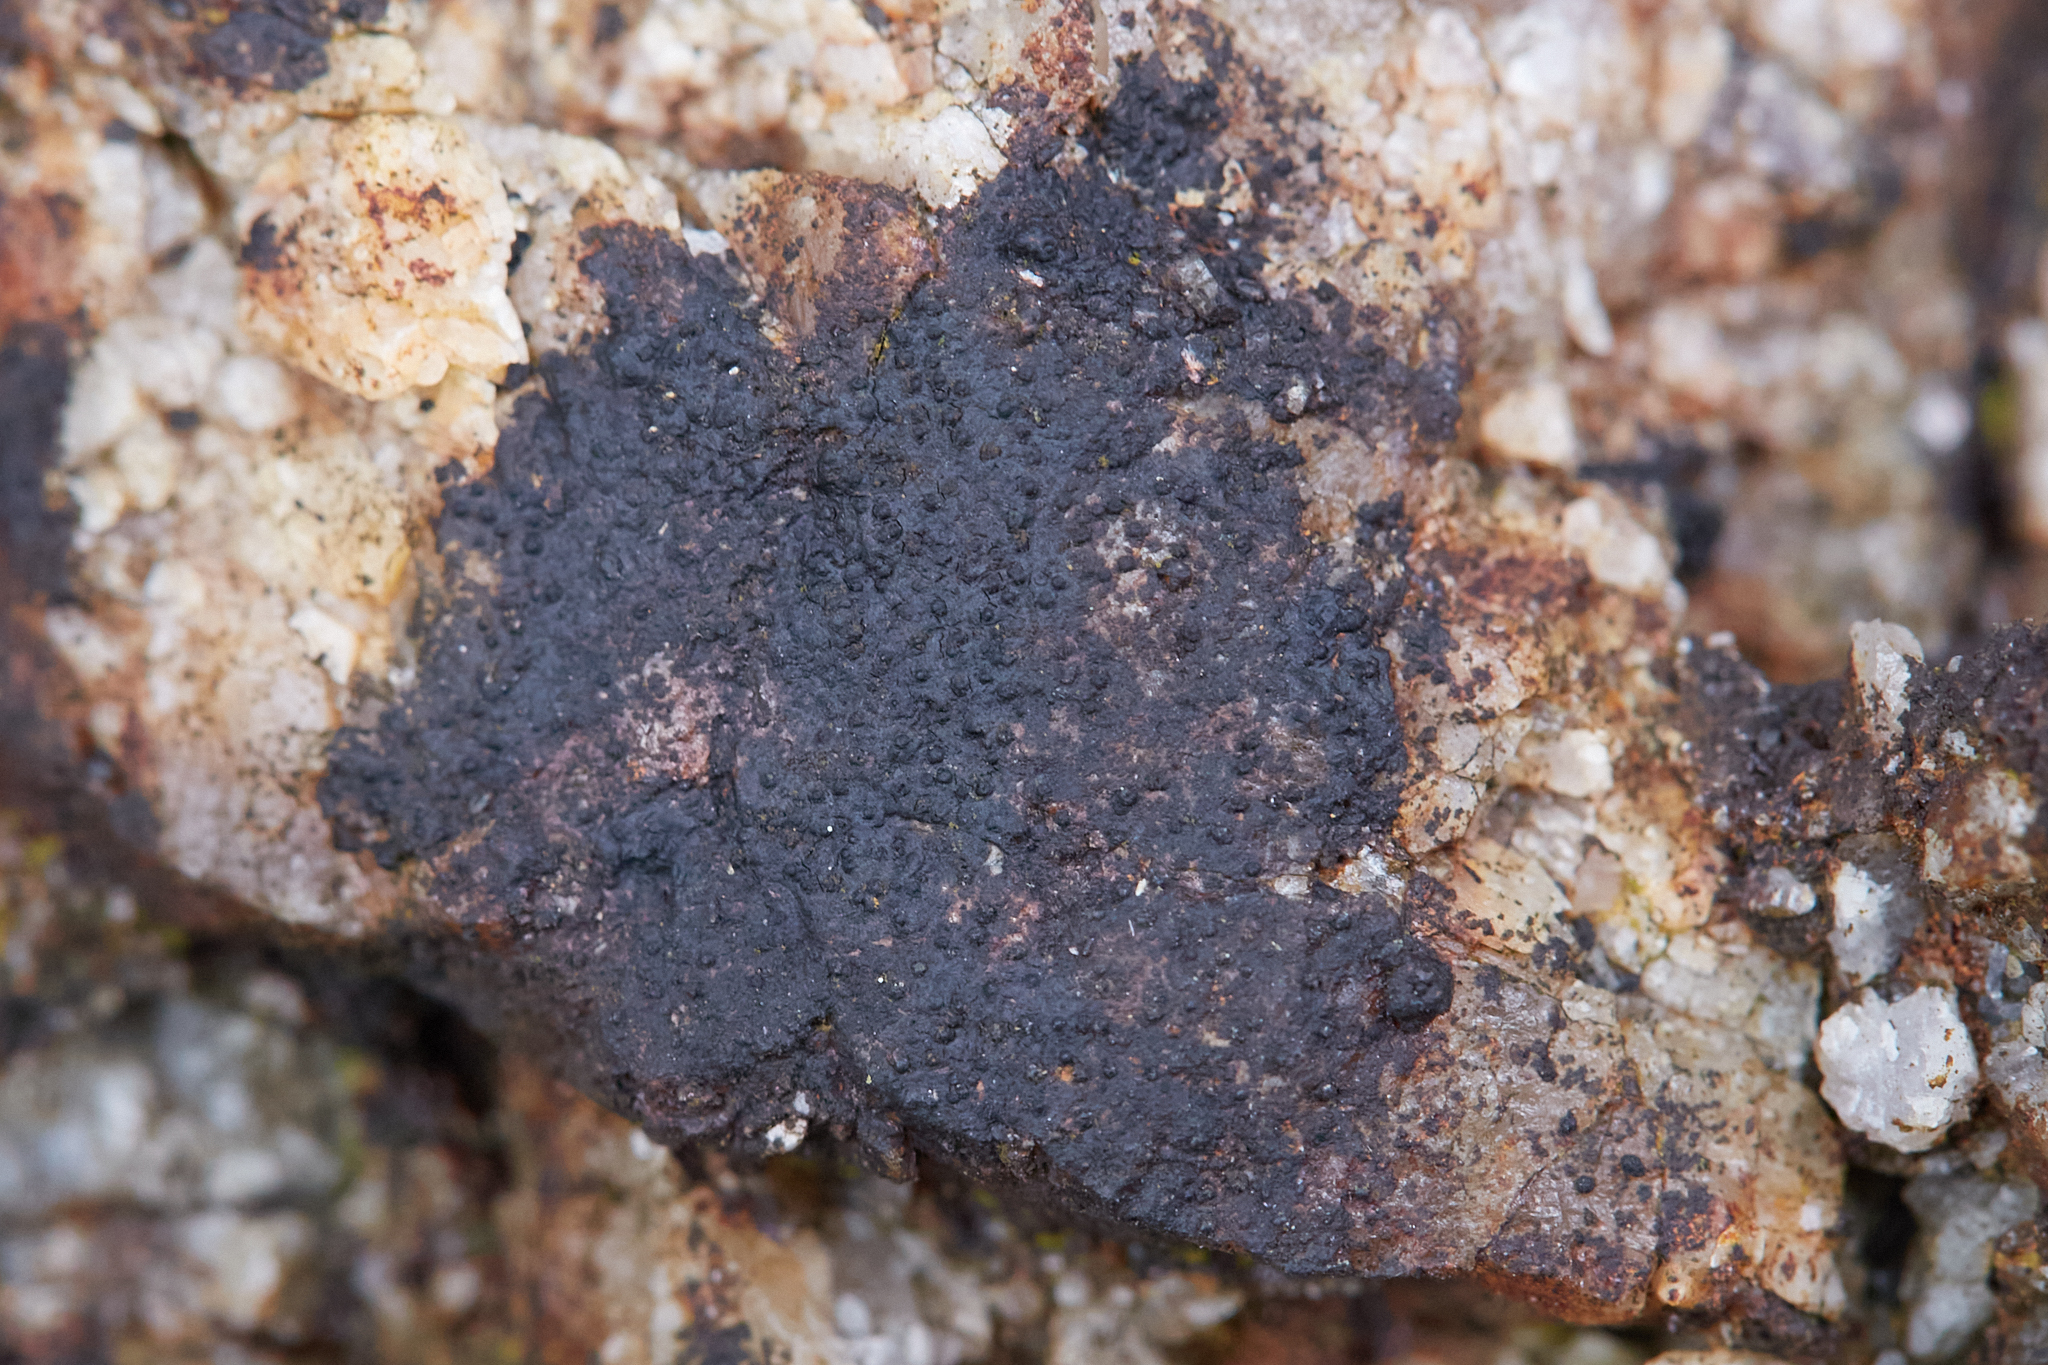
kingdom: Fungi
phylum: Ascomycota
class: Eurotiomycetes
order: Verrucariales
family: Verrucariaceae
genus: Hydropunctaria
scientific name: Hydropunctaria maura
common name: Tar lichen
